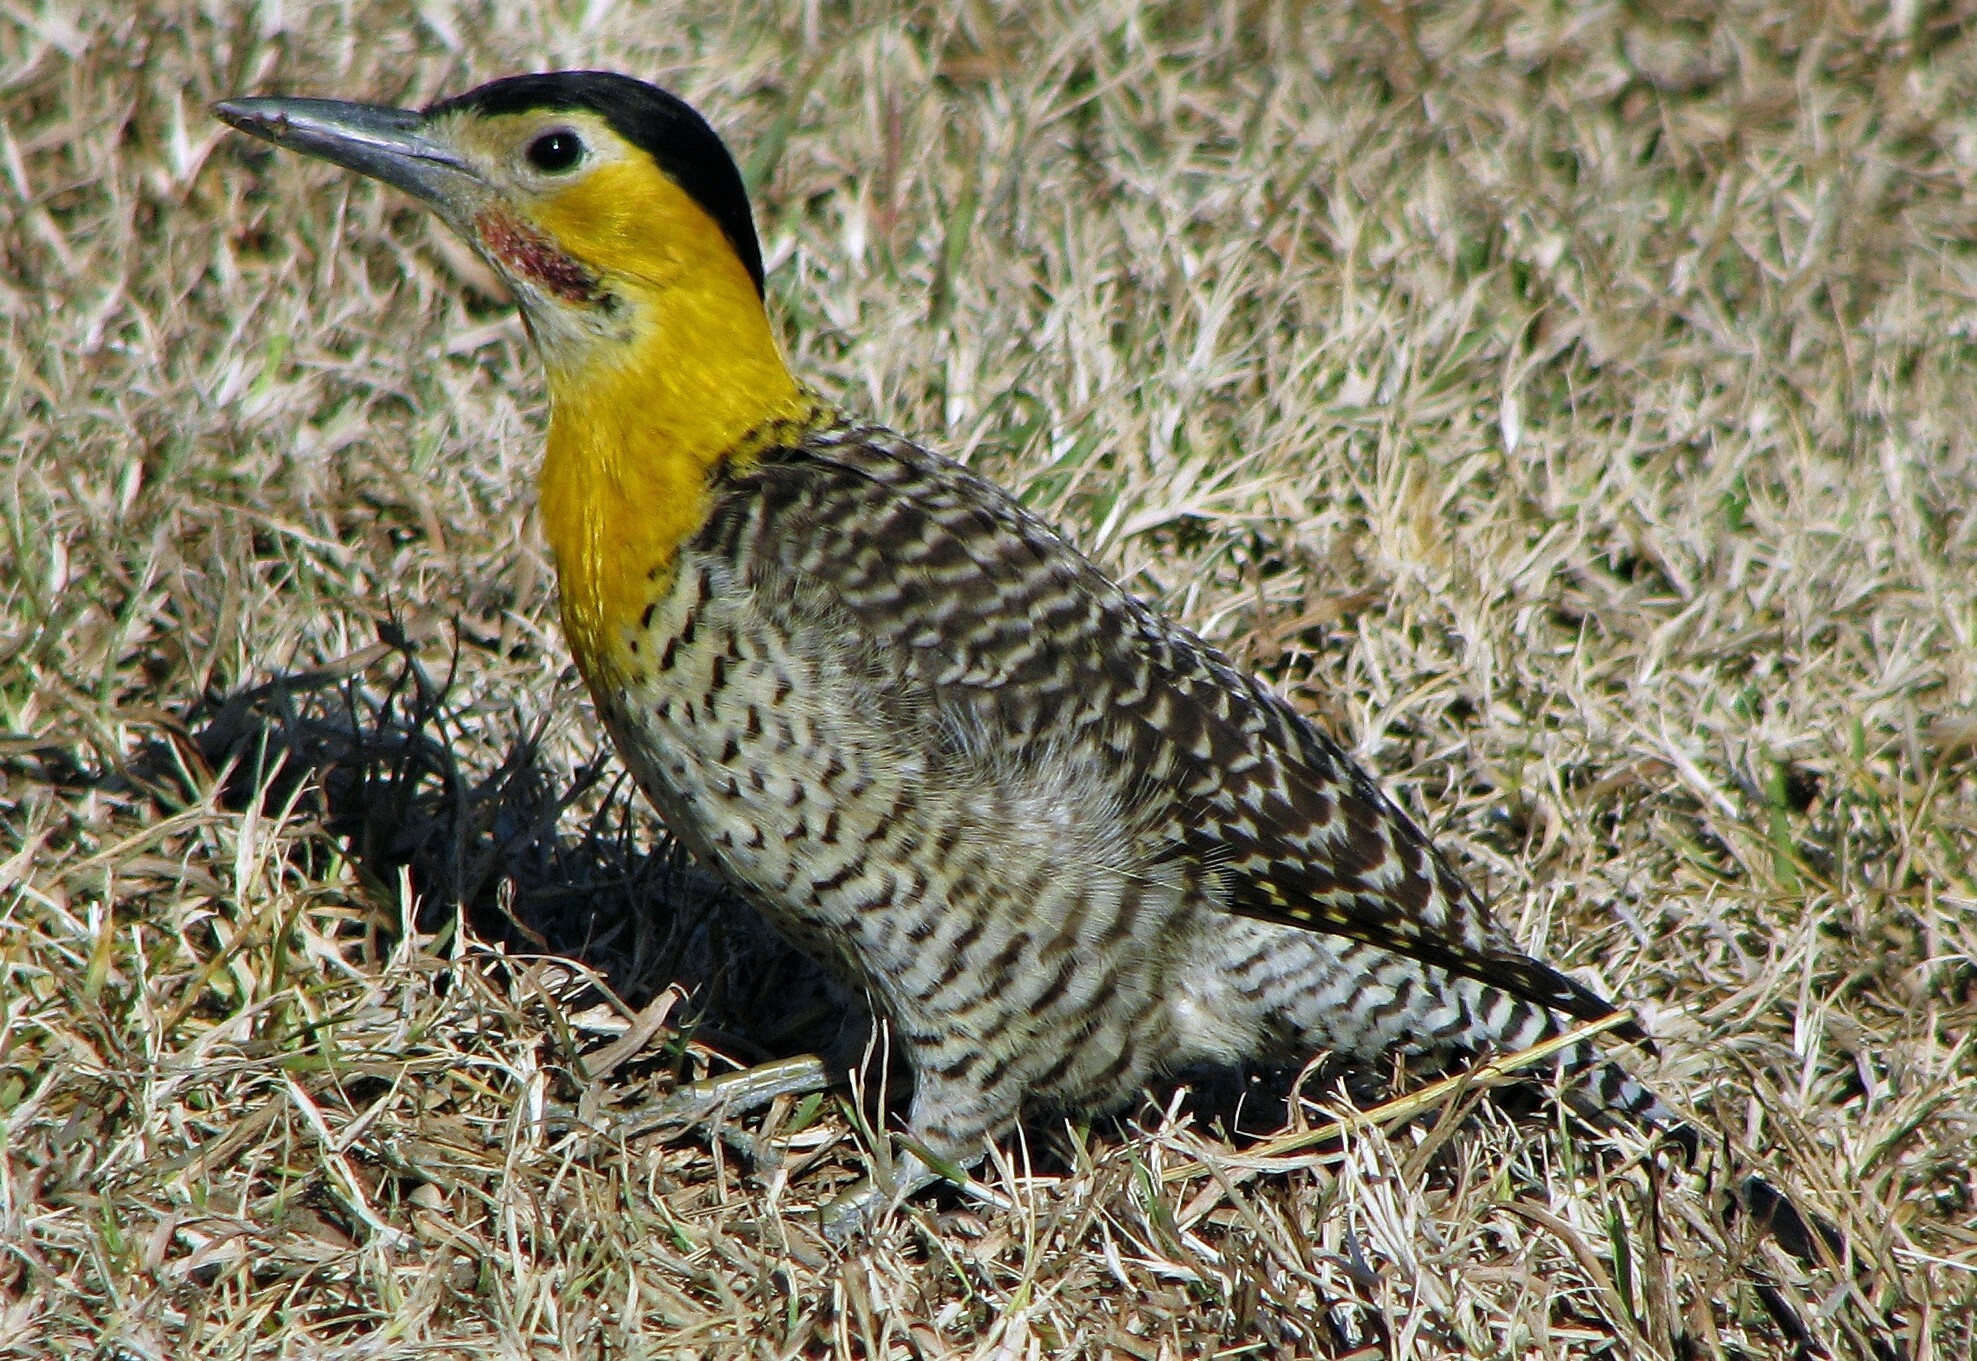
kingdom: Animalia
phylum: Chordata
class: Aves
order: Piciformes
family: Picidae
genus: Colaptes
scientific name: Colaptes campestris
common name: Campo flicker
